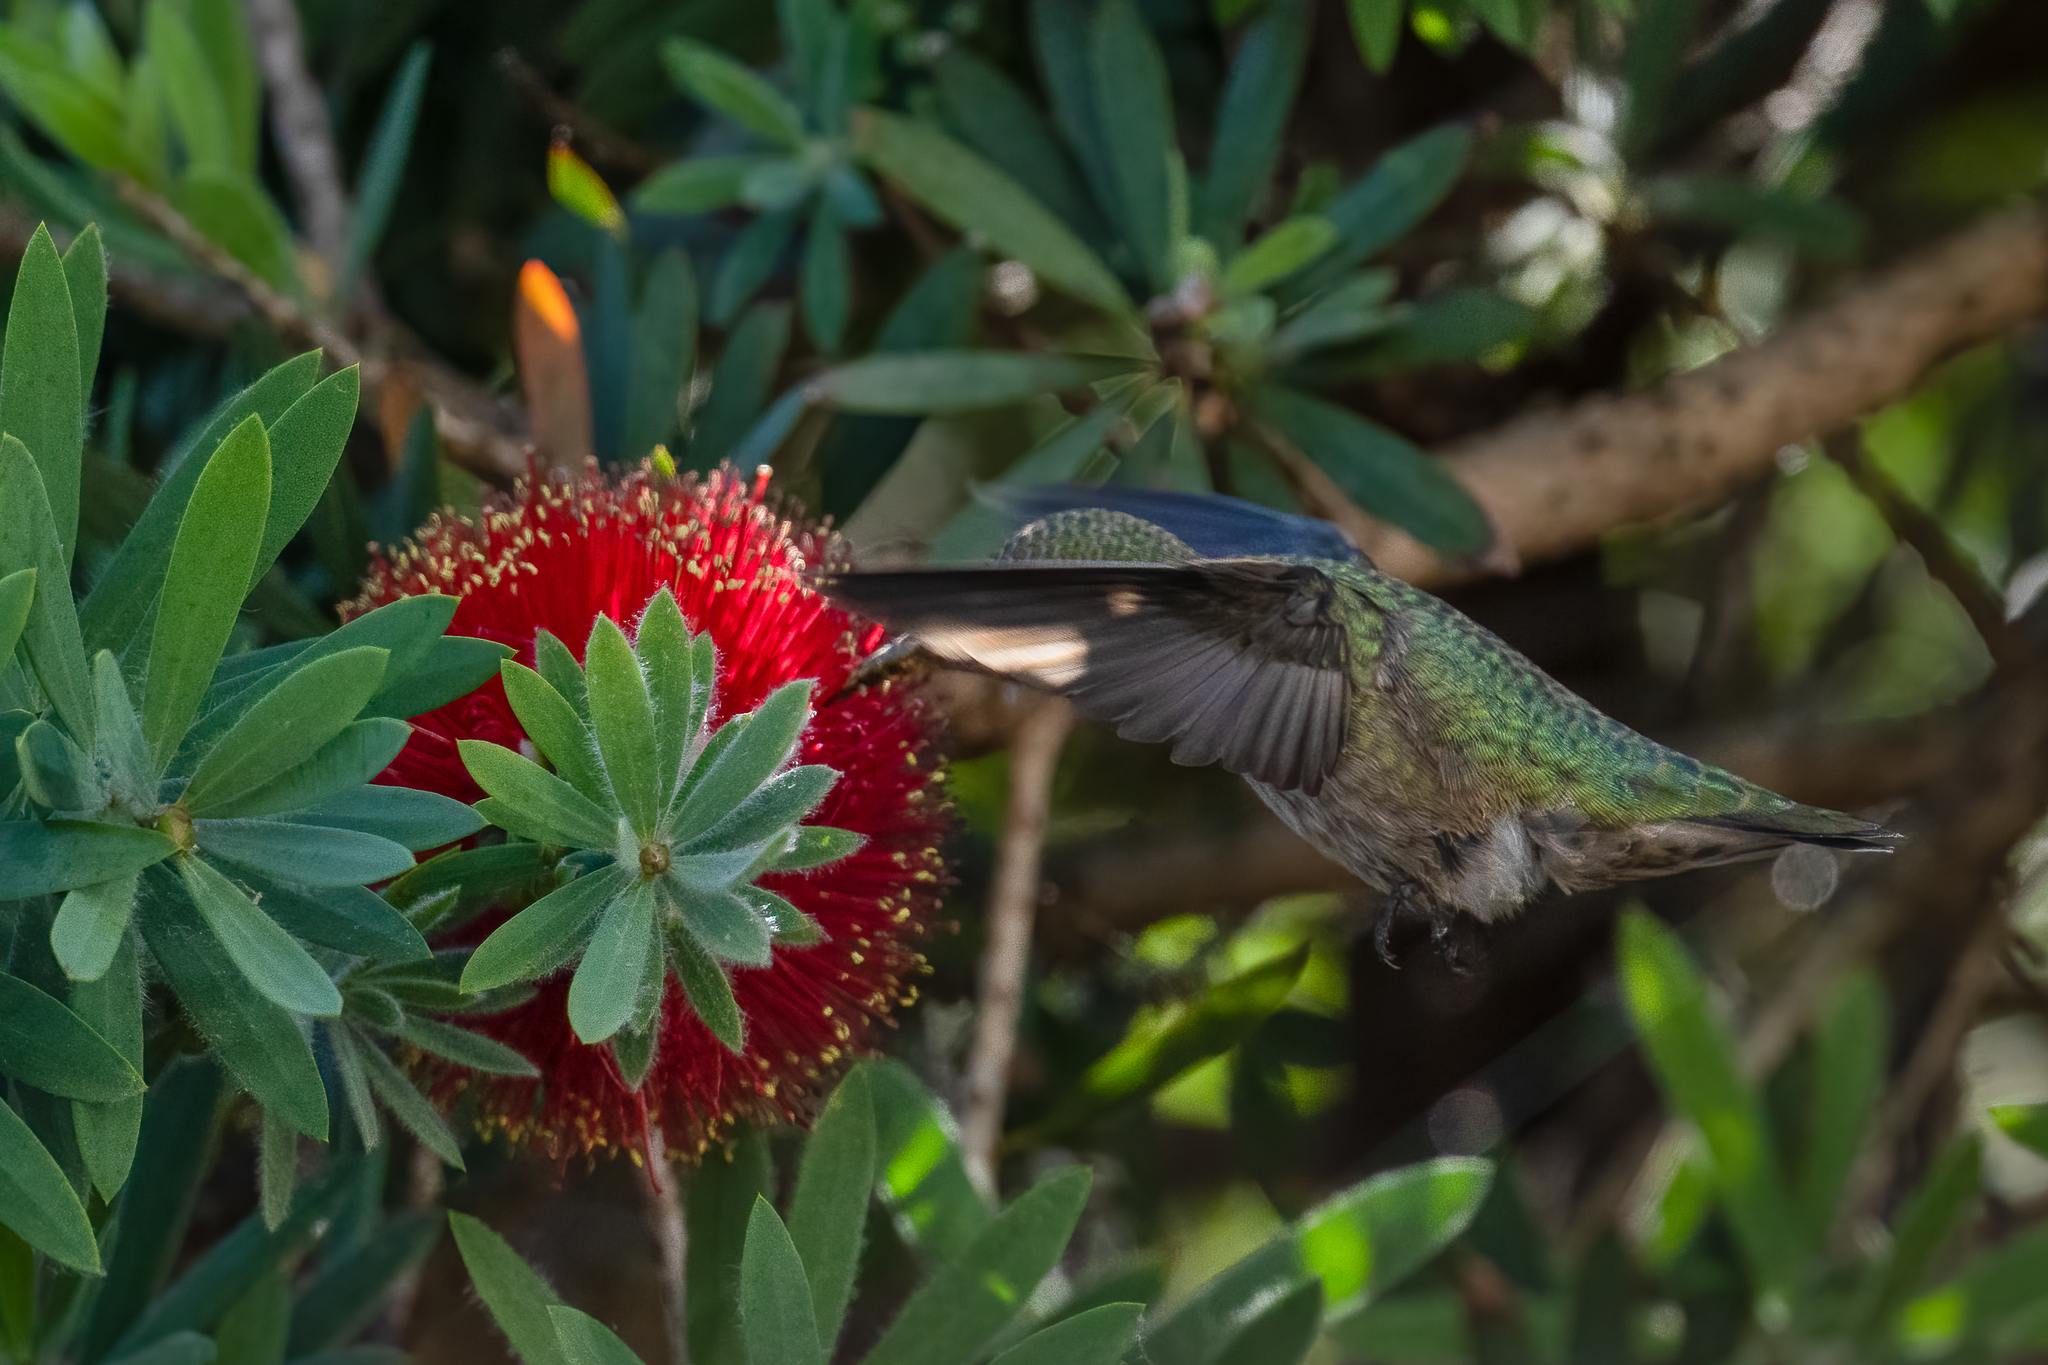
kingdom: Animalia
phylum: Chordata
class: Aves
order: Apodiformes
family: Trochilidae
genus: Calypte
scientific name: Calypte anna
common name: Anna's hummingbird
